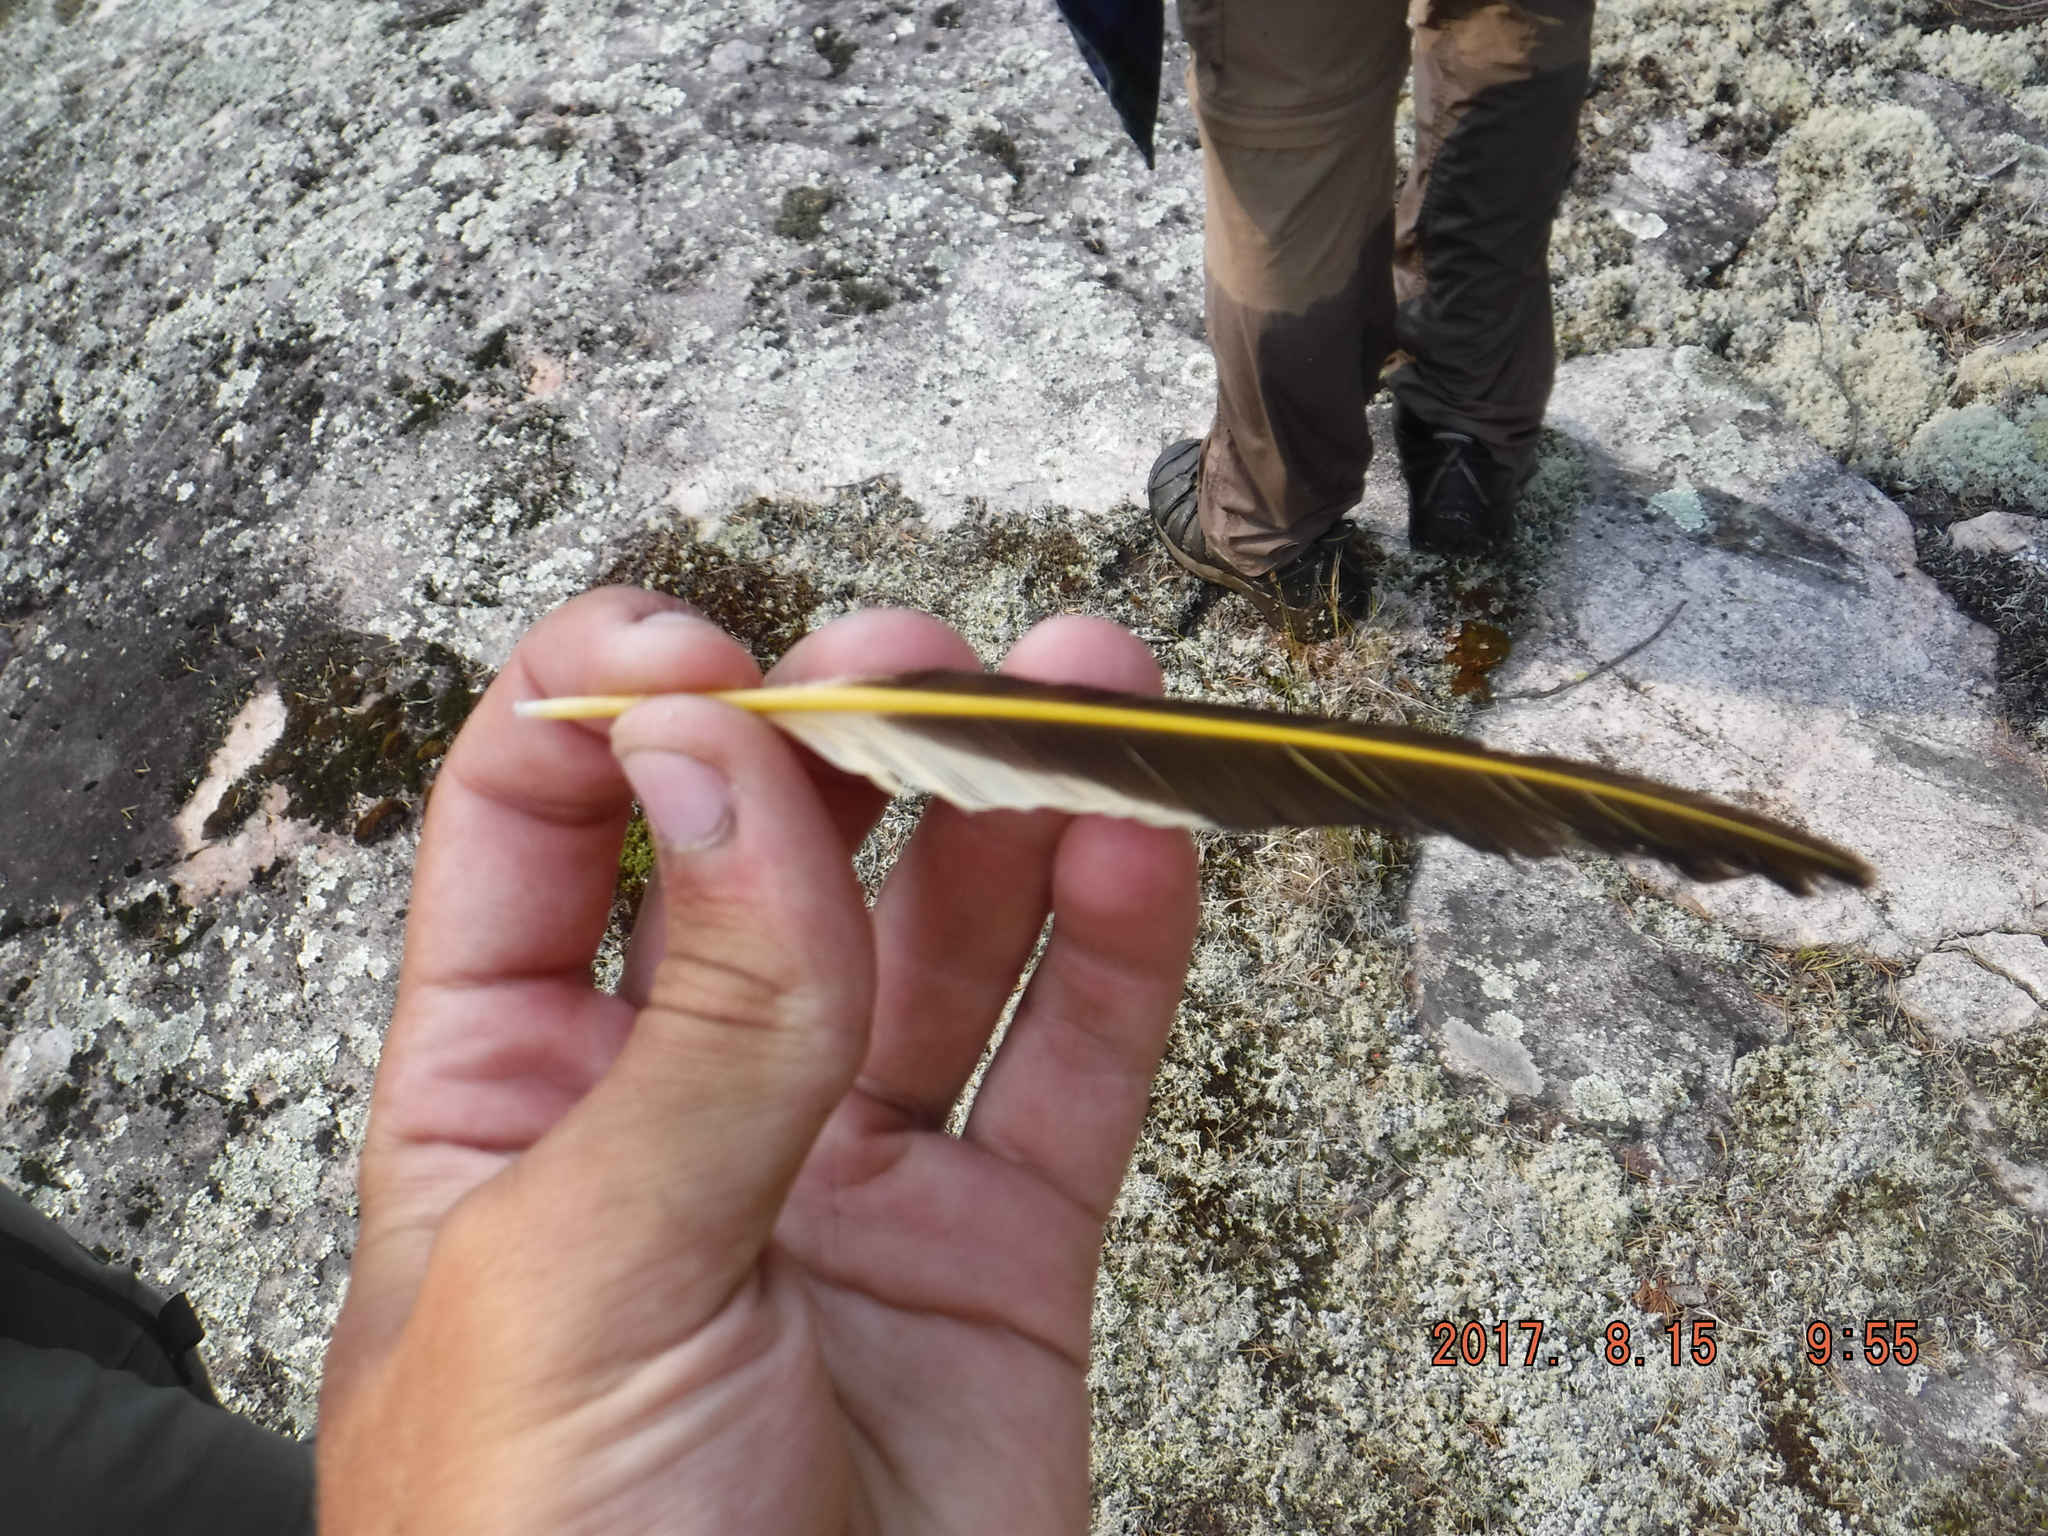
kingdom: Animalia
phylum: Chordata
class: Aves
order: Piciformes
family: Picidae
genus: Colaptes
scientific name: Colaptes auratus
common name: Northern flicker
